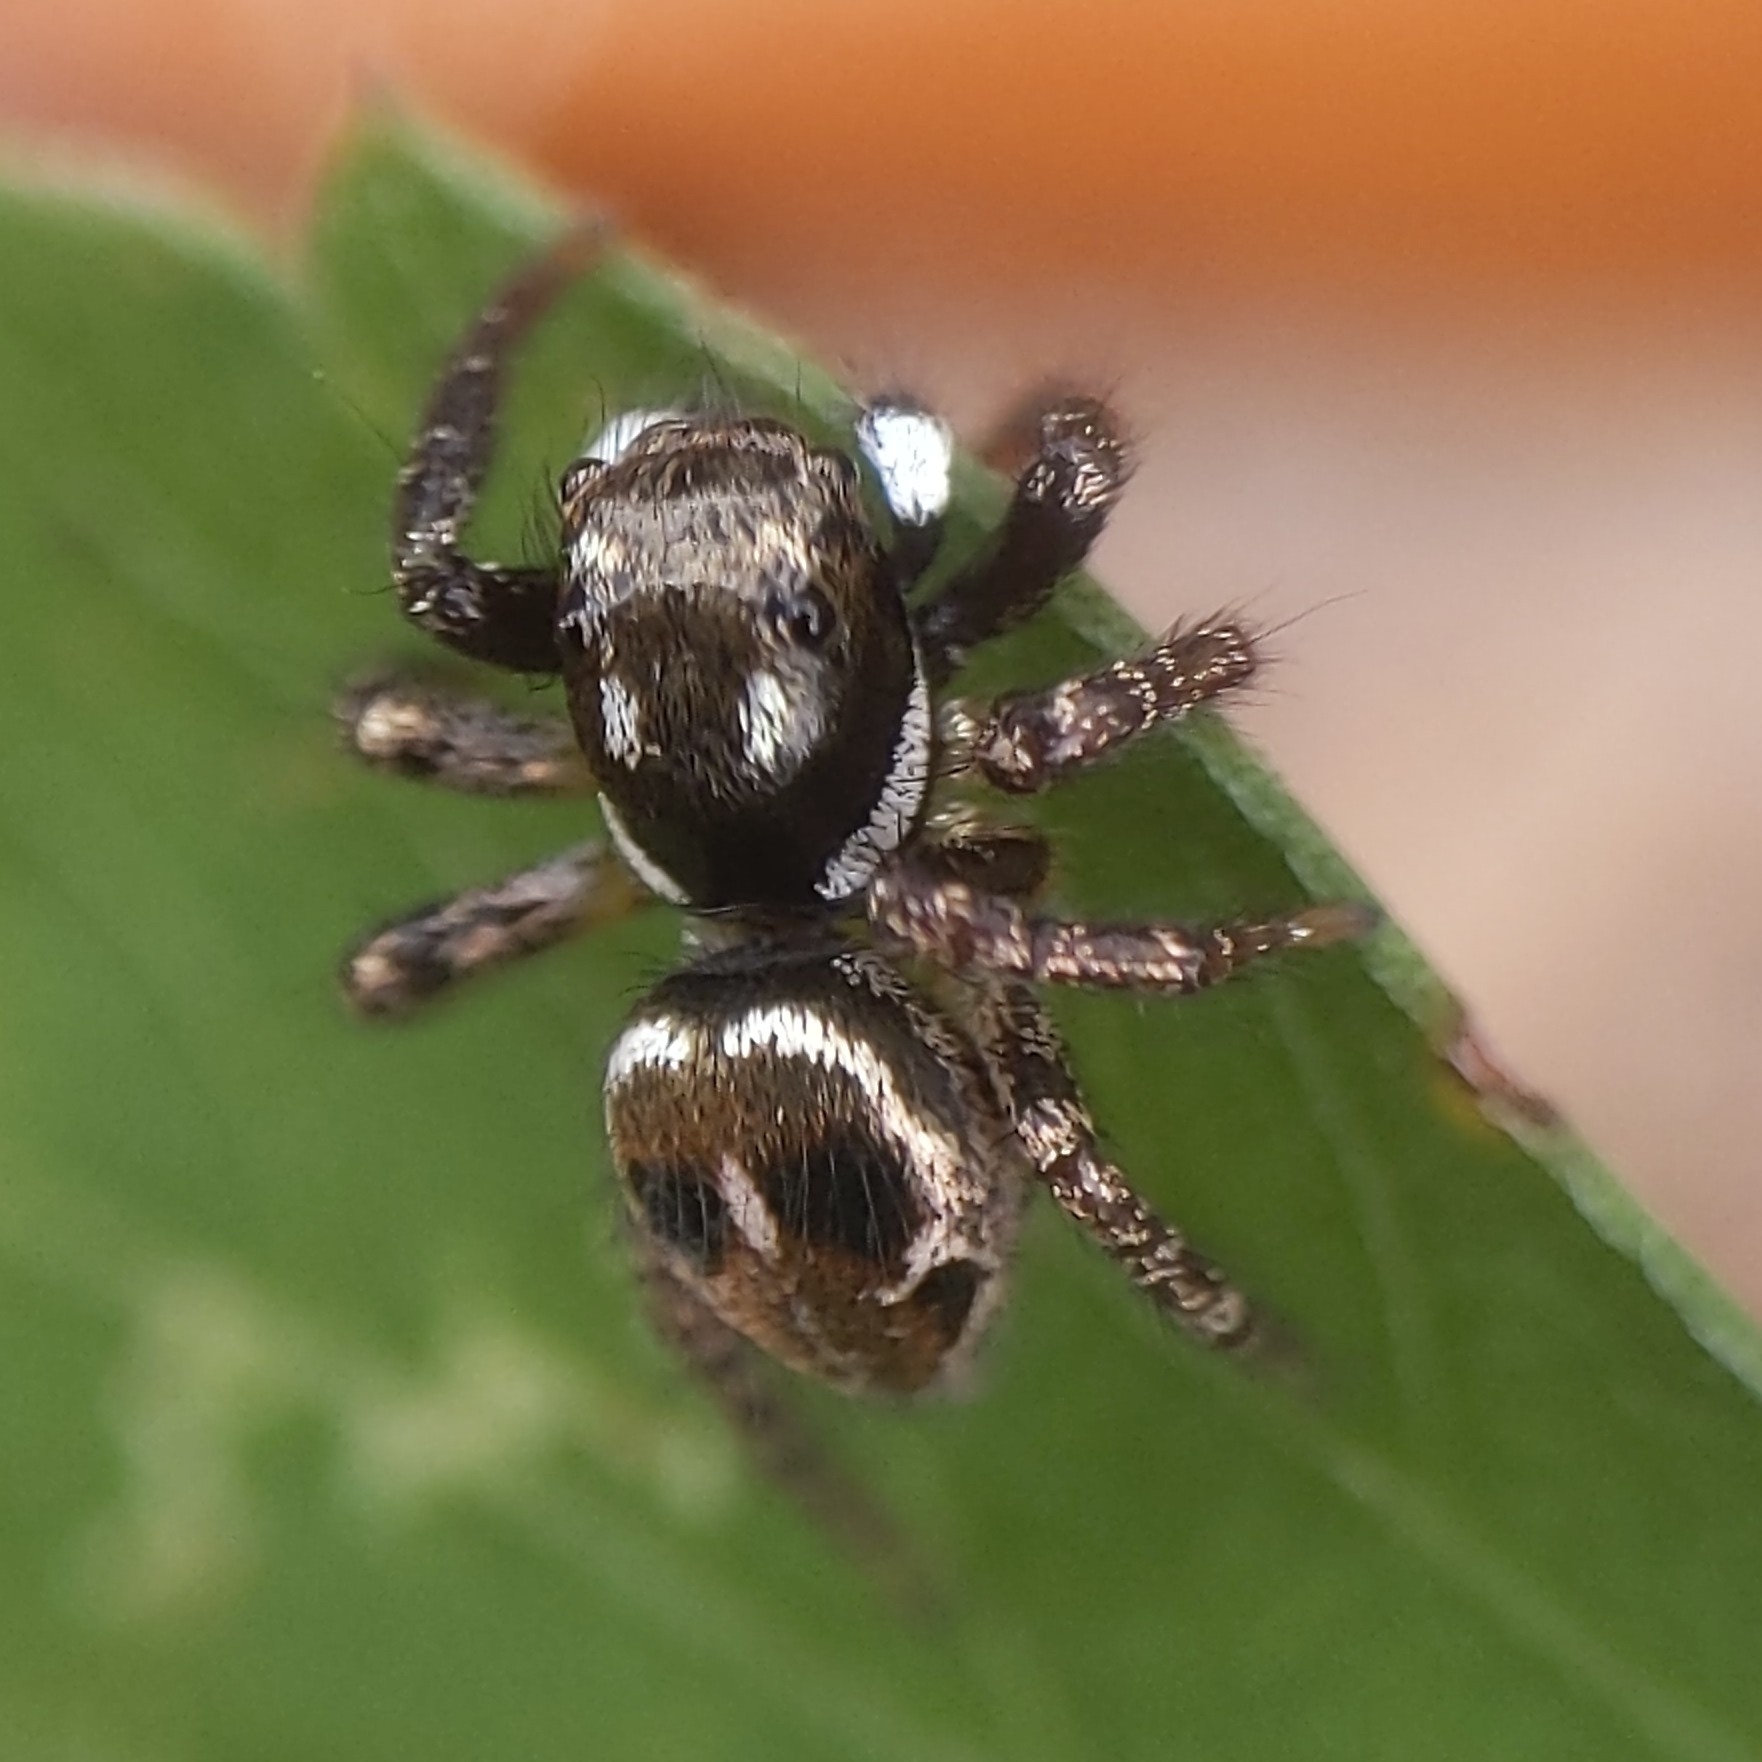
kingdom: Animalia
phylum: Arthropoda
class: Arachnida
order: Araneae
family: Salticidae
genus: Anasaitis
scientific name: Anasaitis canosa
